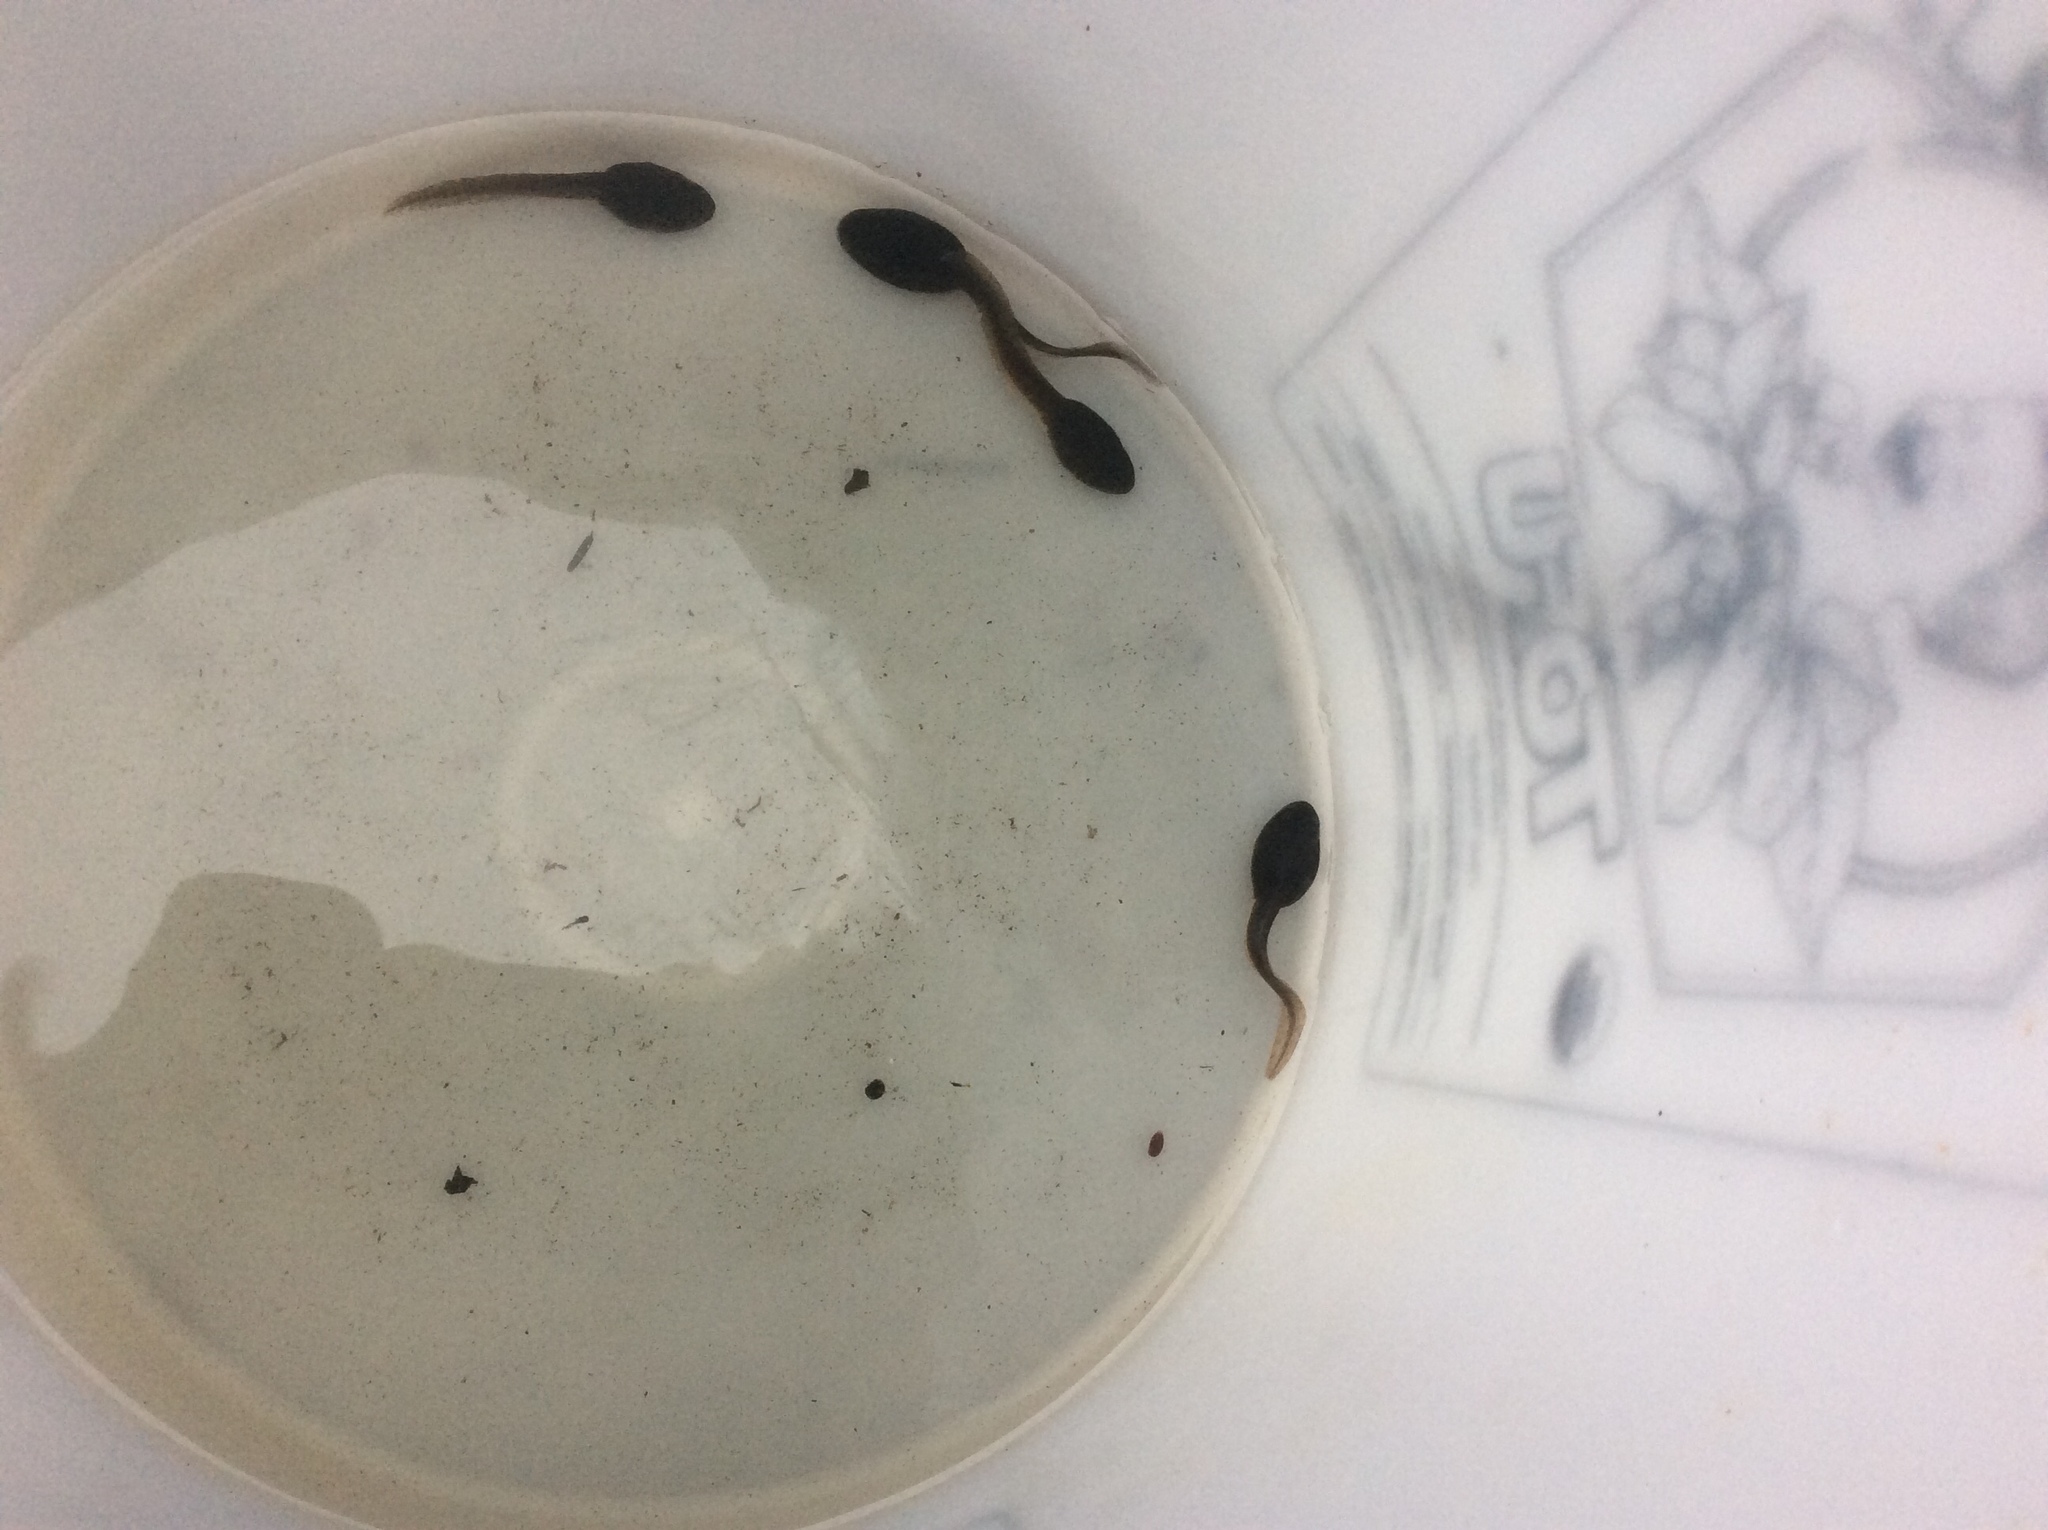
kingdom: Animalia
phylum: Chordata
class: Amphibia
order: Anura
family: Ranidae
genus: Lithobates
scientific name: Lithobates catesbeianus
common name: American bullfrog
